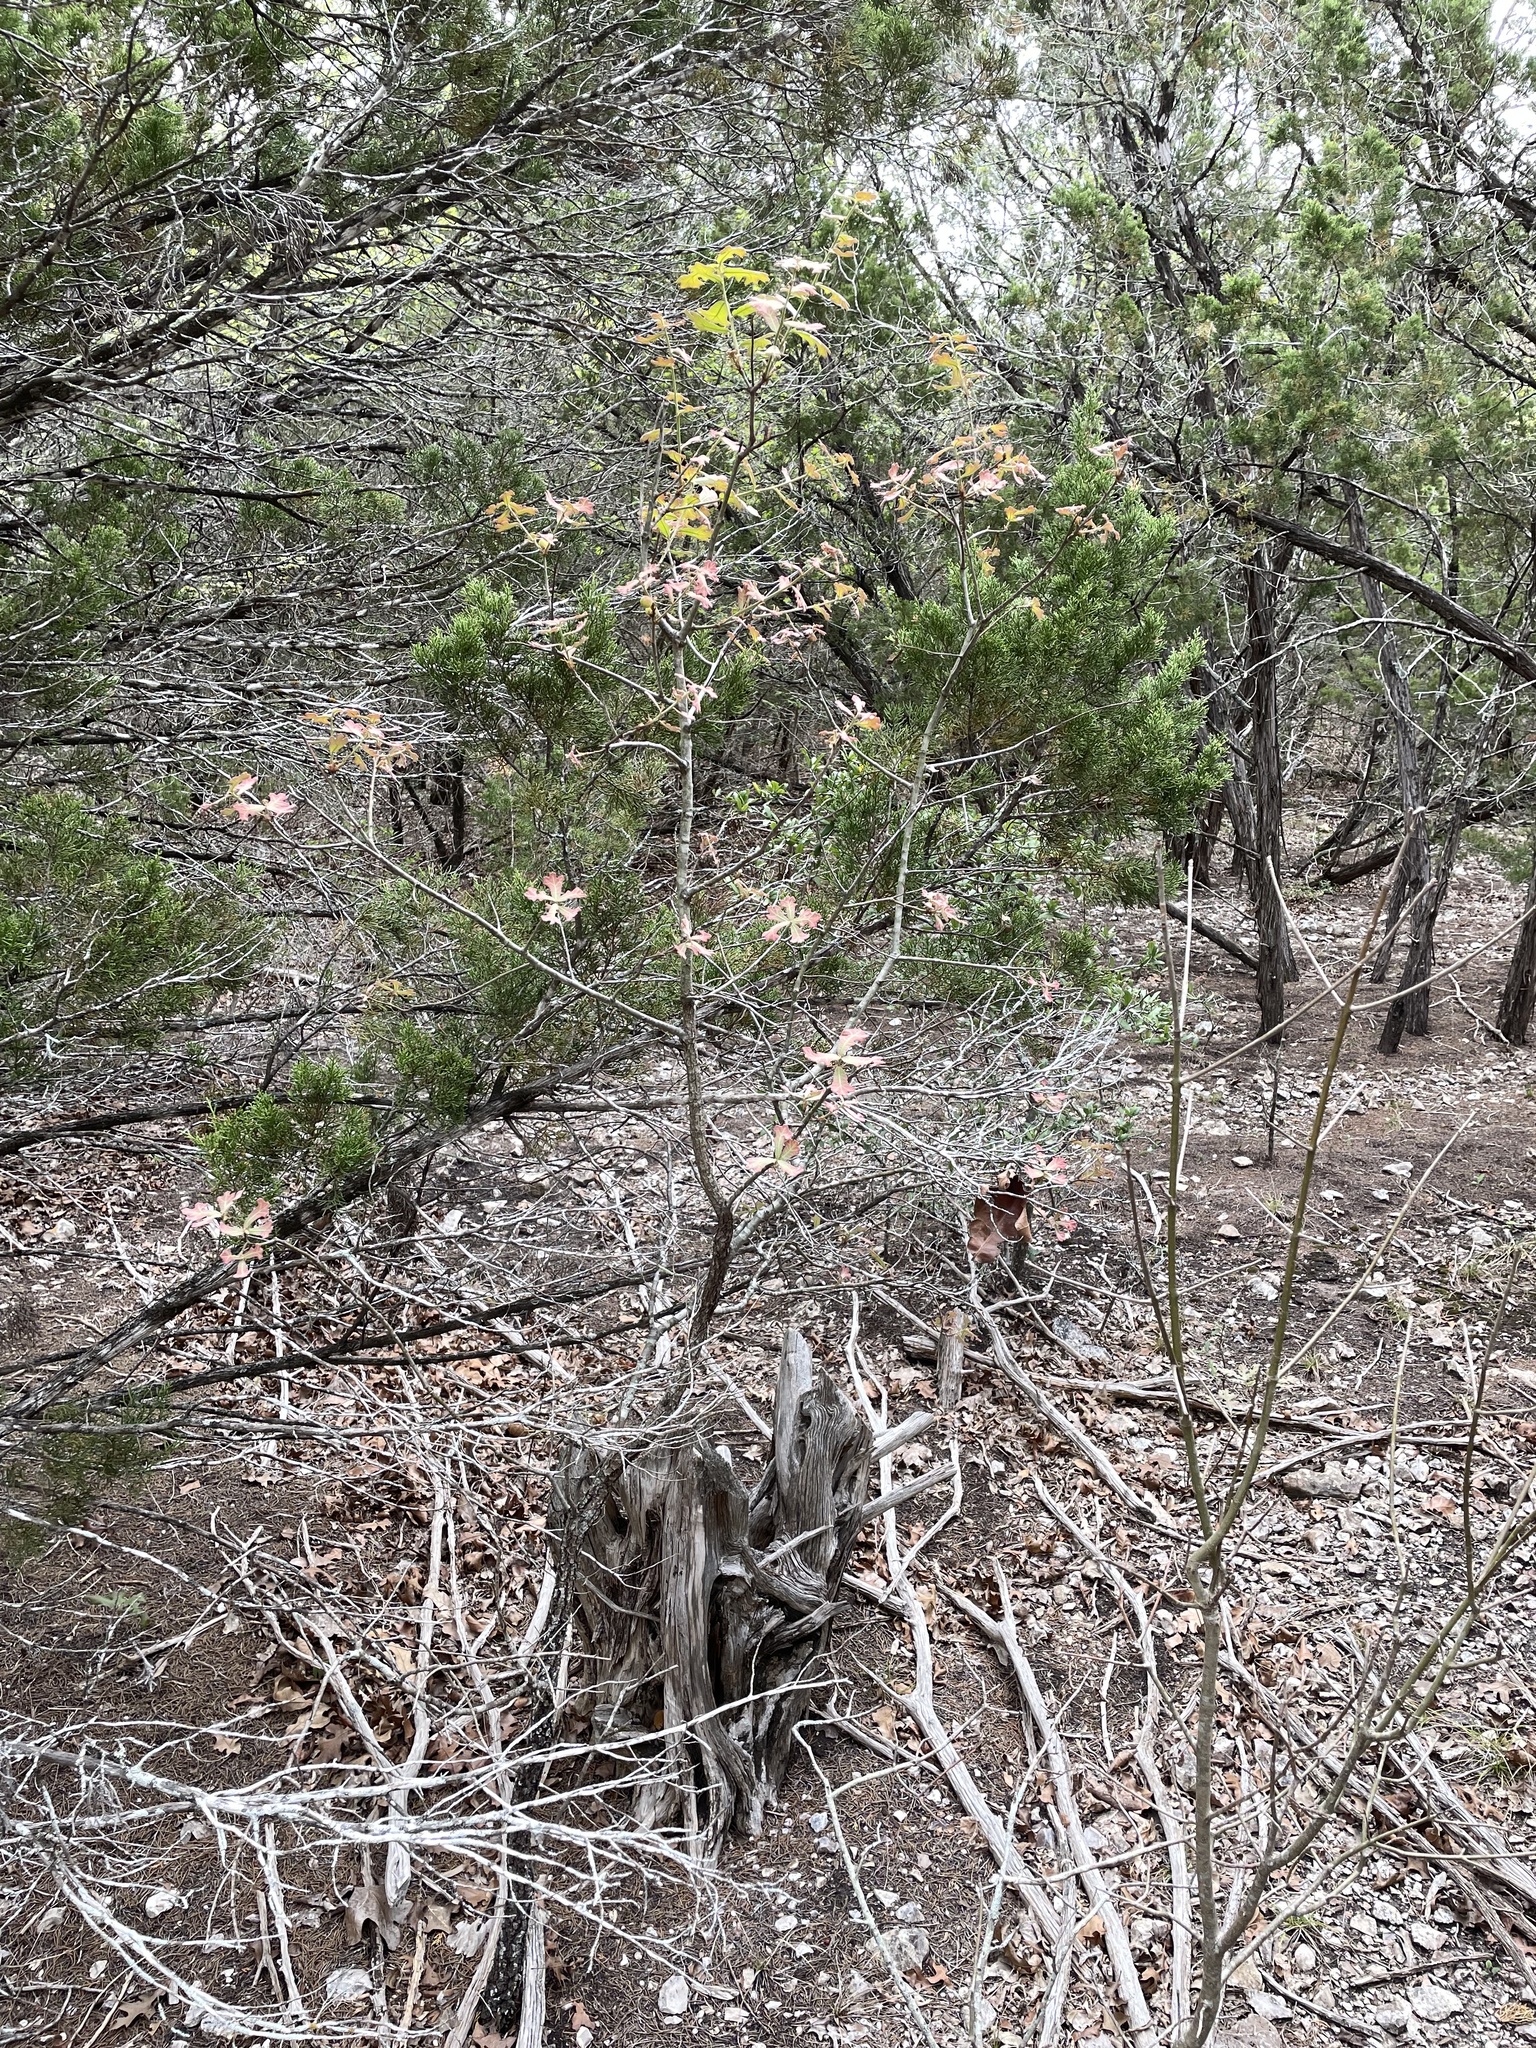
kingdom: Plantae
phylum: Tracheophyta
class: Magnoliopsida
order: Fagales
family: Fagaceae
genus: Quercus
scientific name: Quercus marilandica
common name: Blackjack oak
